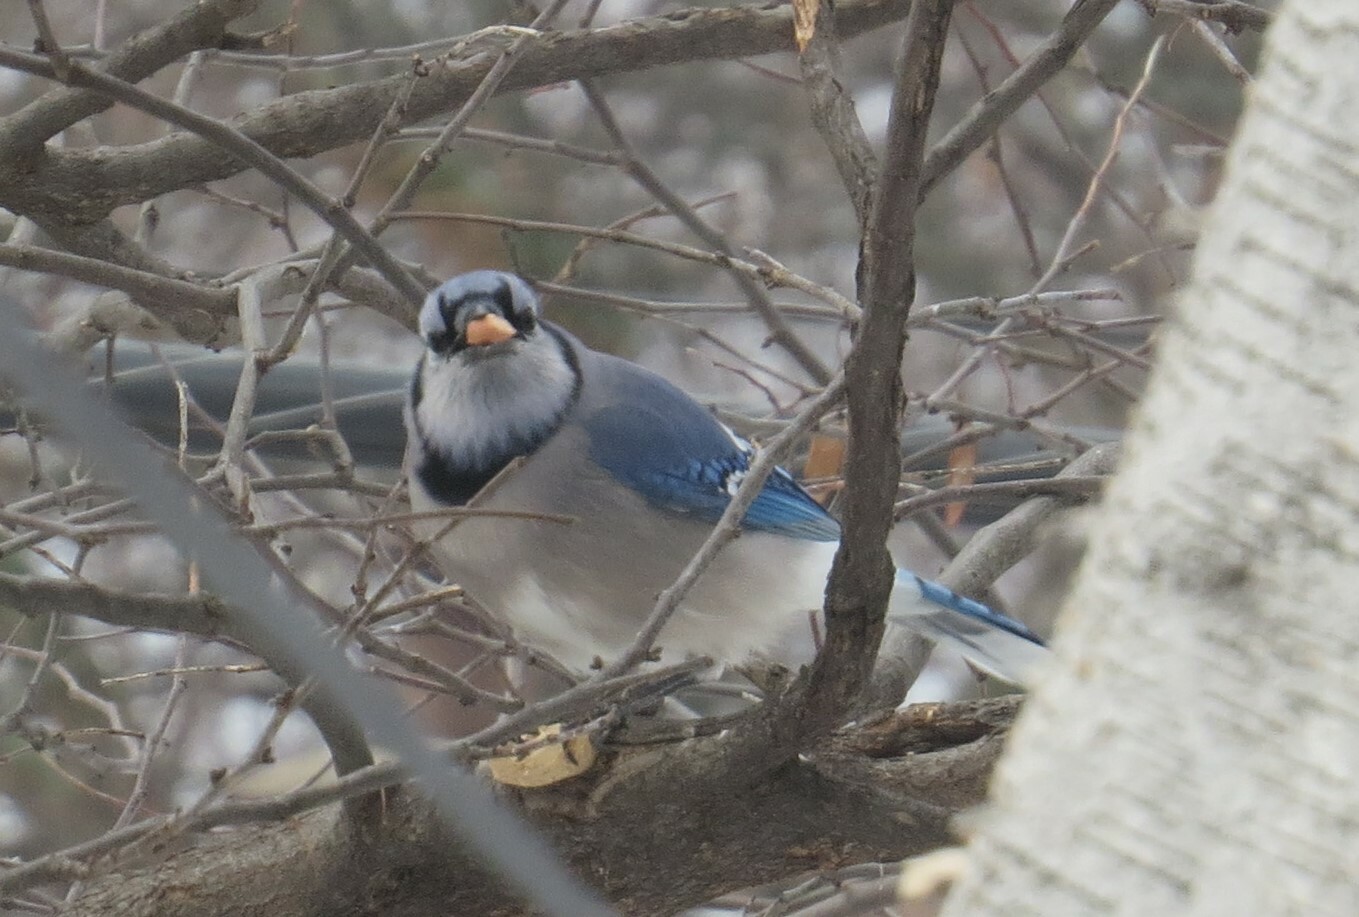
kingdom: Animalia
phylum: Chordata
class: Aves
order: Passeriformes
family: Corvidae
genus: Cyanocitta
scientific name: Cyanocitta cristata
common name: Blue jay
